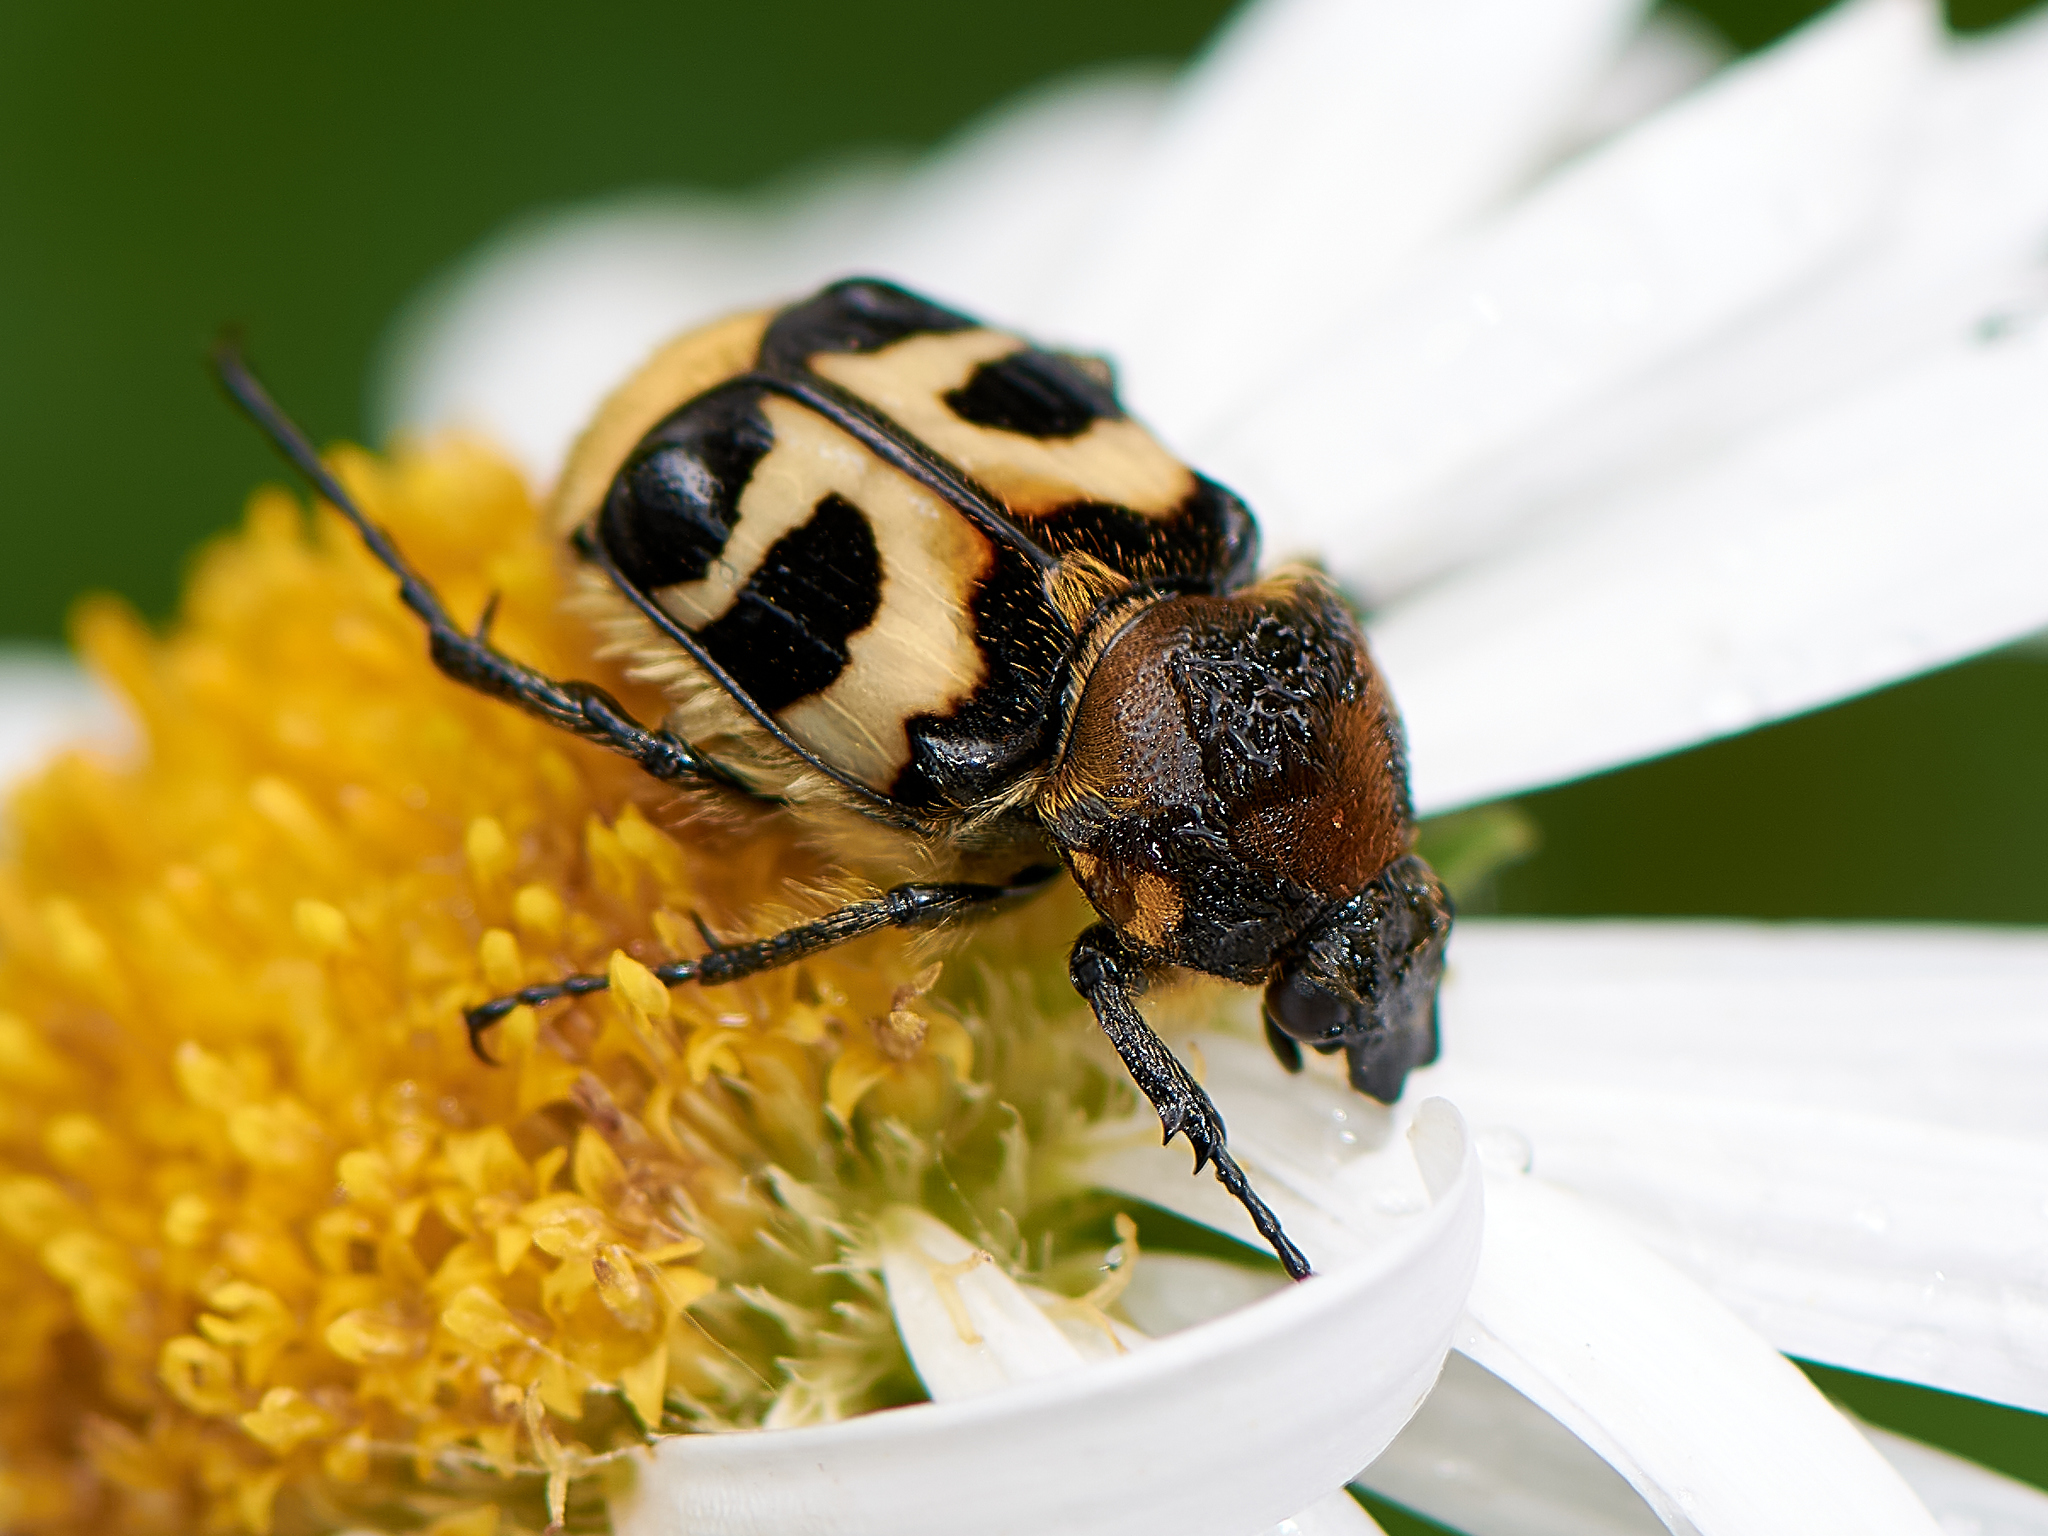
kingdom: Animalia
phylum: Arthropoda
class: Insecta
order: Coleoptera
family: Scarabaeidae
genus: Trichius
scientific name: Trichius fasciatus
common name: Bee beetle
